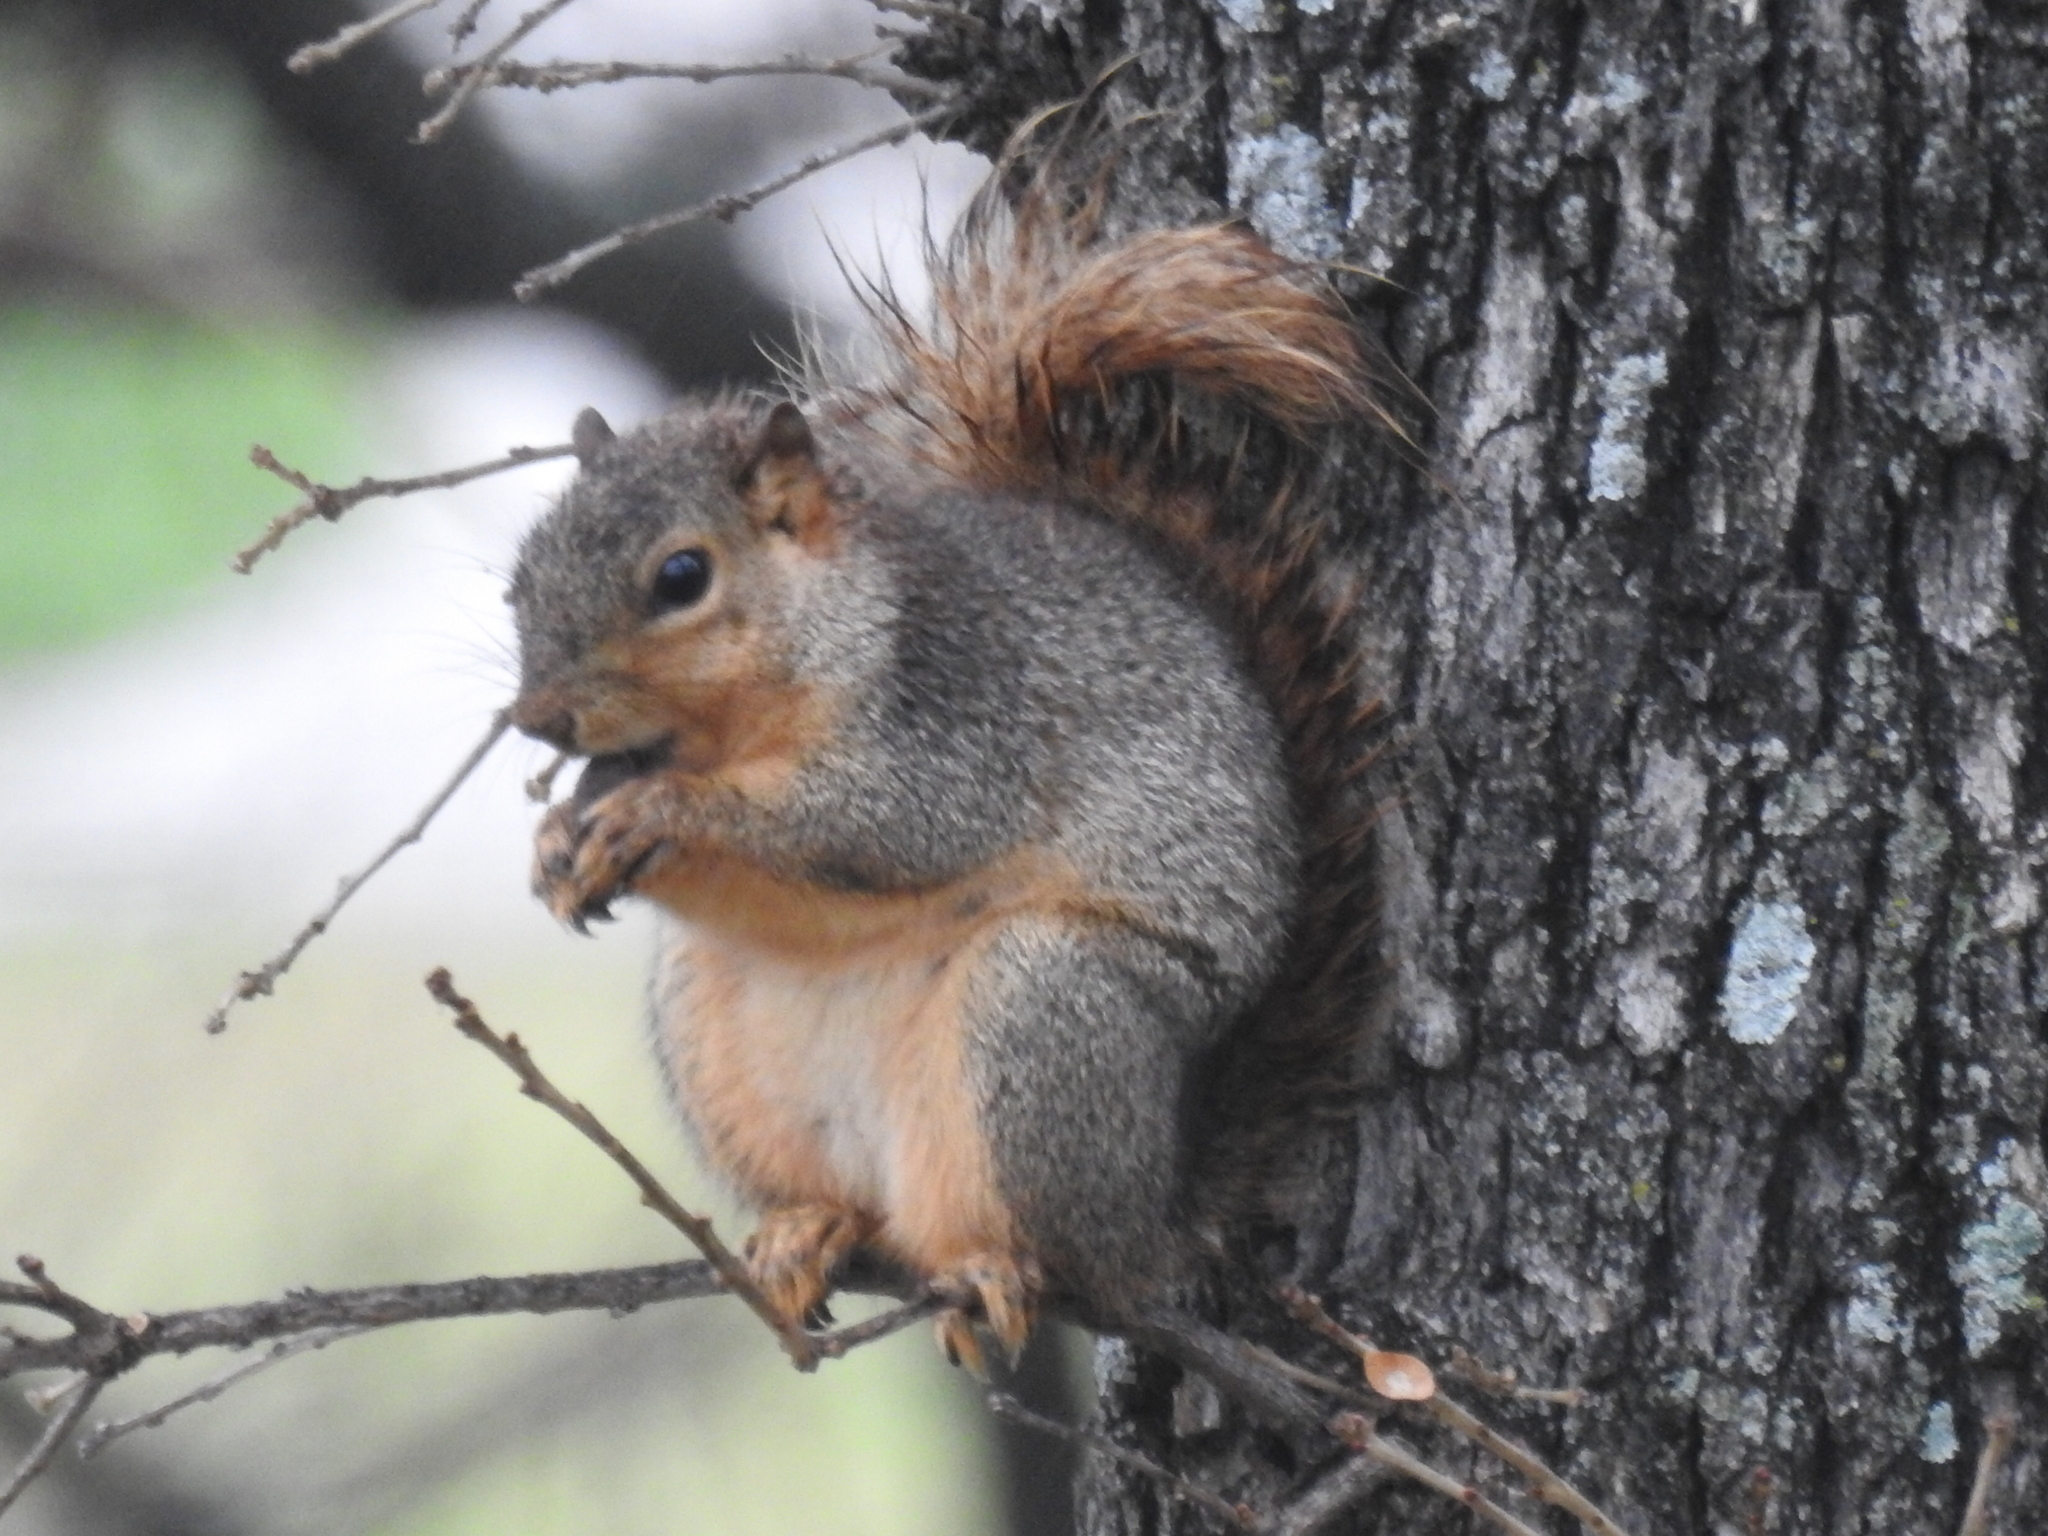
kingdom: Animalia
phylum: Chordata
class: Mammalia
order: Rodentia
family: Sciuridae
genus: Sciurus
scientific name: Sciurus niger
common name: Fox squirrel
